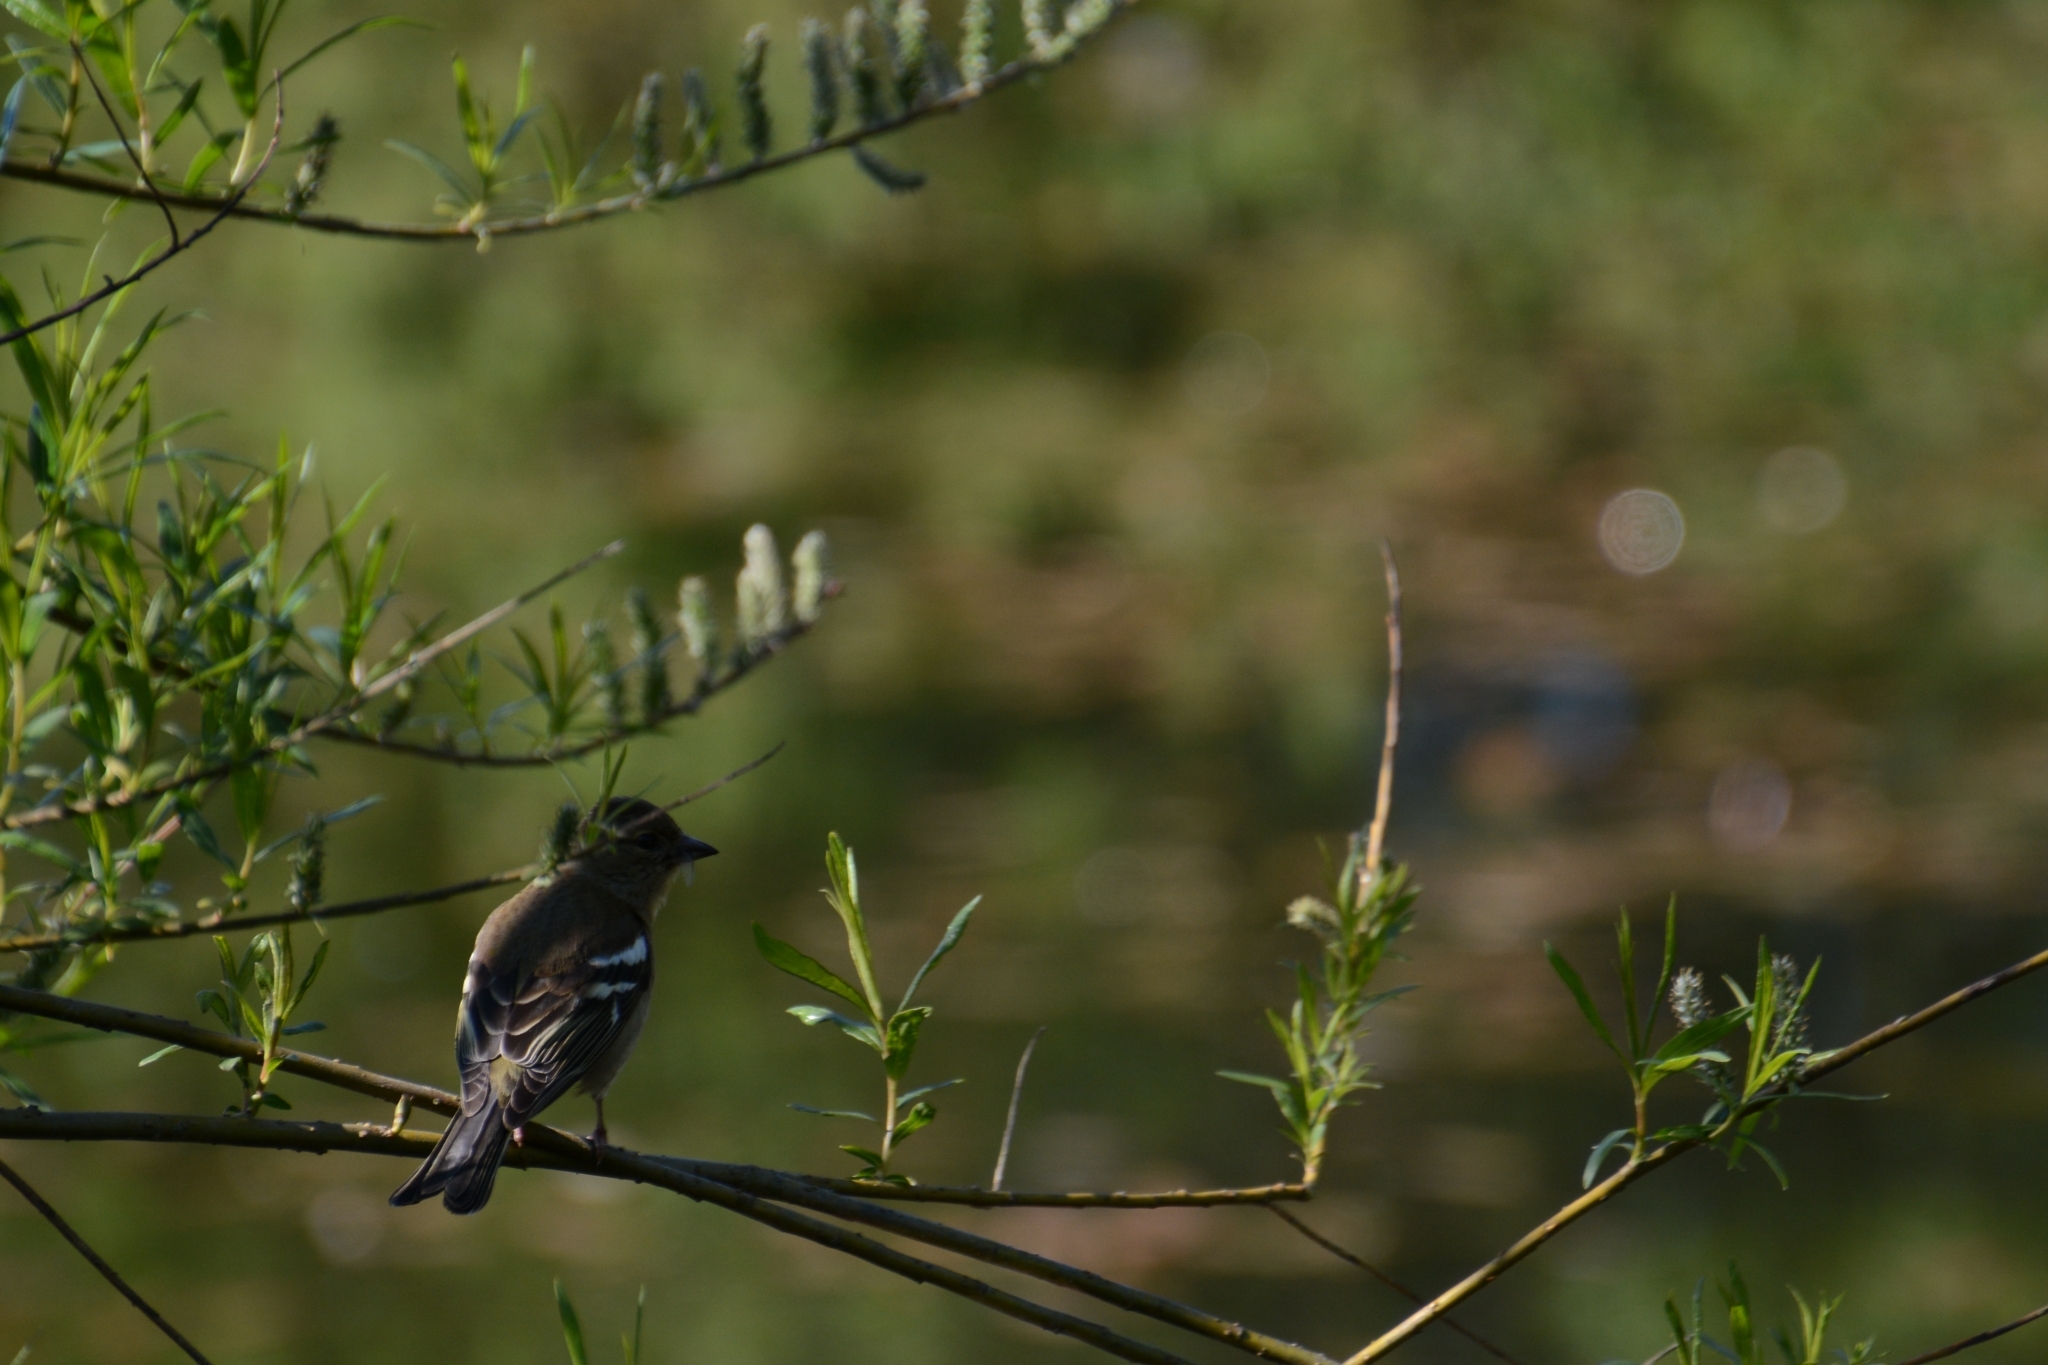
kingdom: Animalia
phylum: Chordata
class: Aves
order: Passeriformes
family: Fringillidae
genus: Fringilla
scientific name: Fringilla coelebs
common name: Common chaffinch
